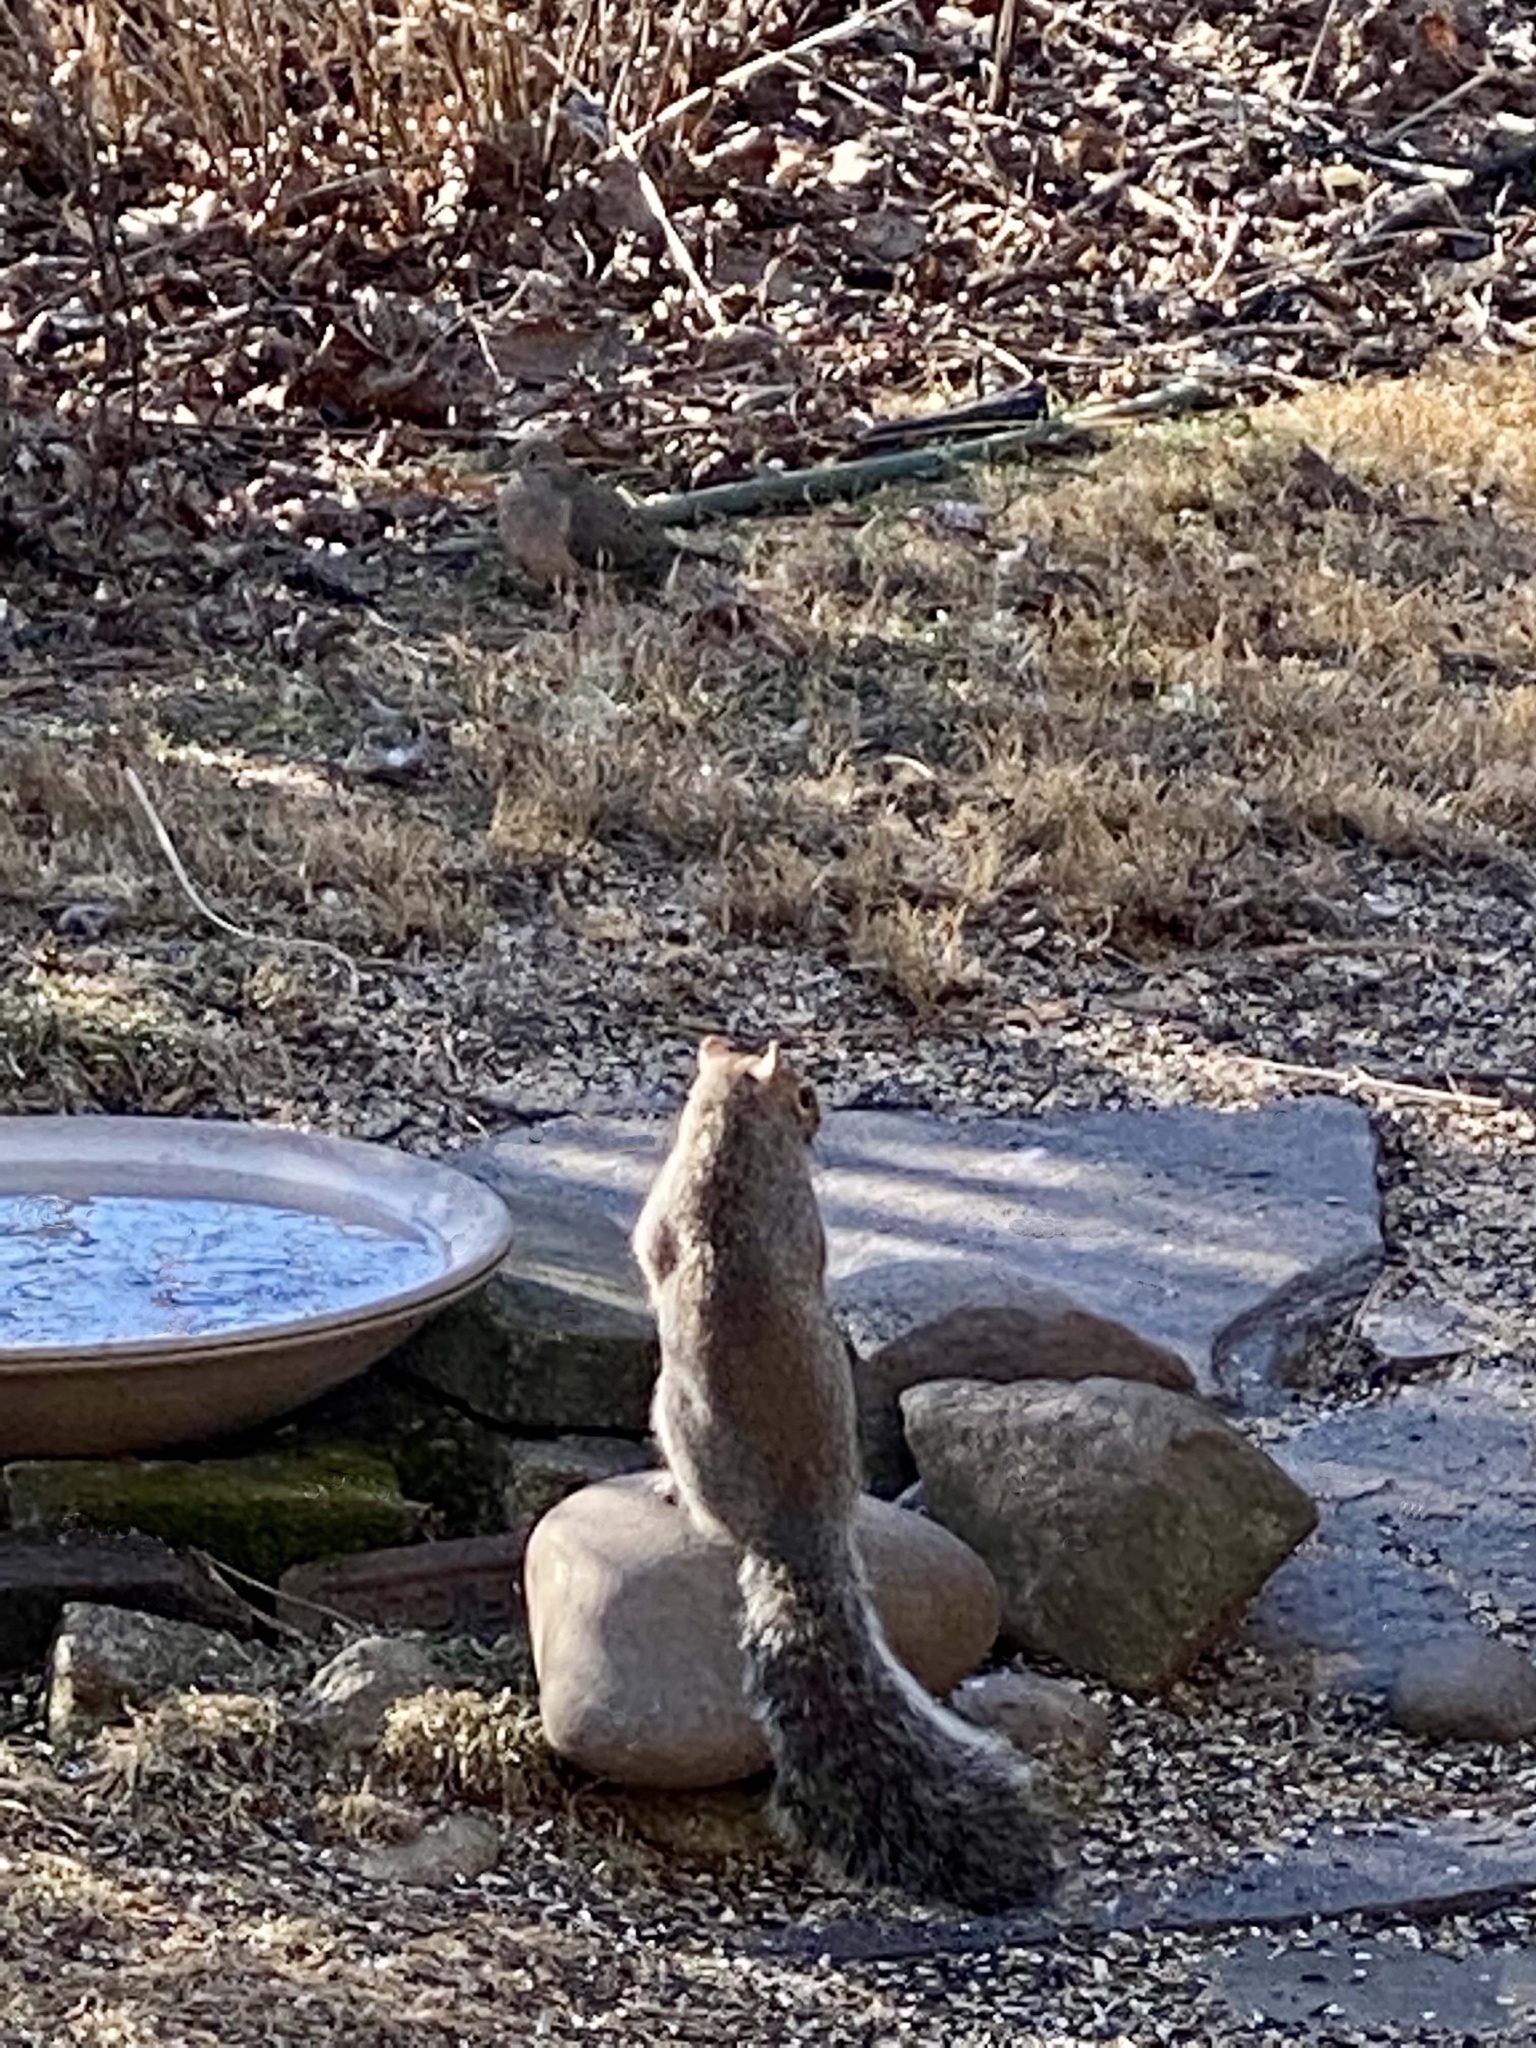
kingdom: Animalia
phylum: Chordata
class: Mammalia
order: Rodentia
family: Sciuridae
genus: Sciurus
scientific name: Sciurus carolinensis
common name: Eastern gray squirrel
